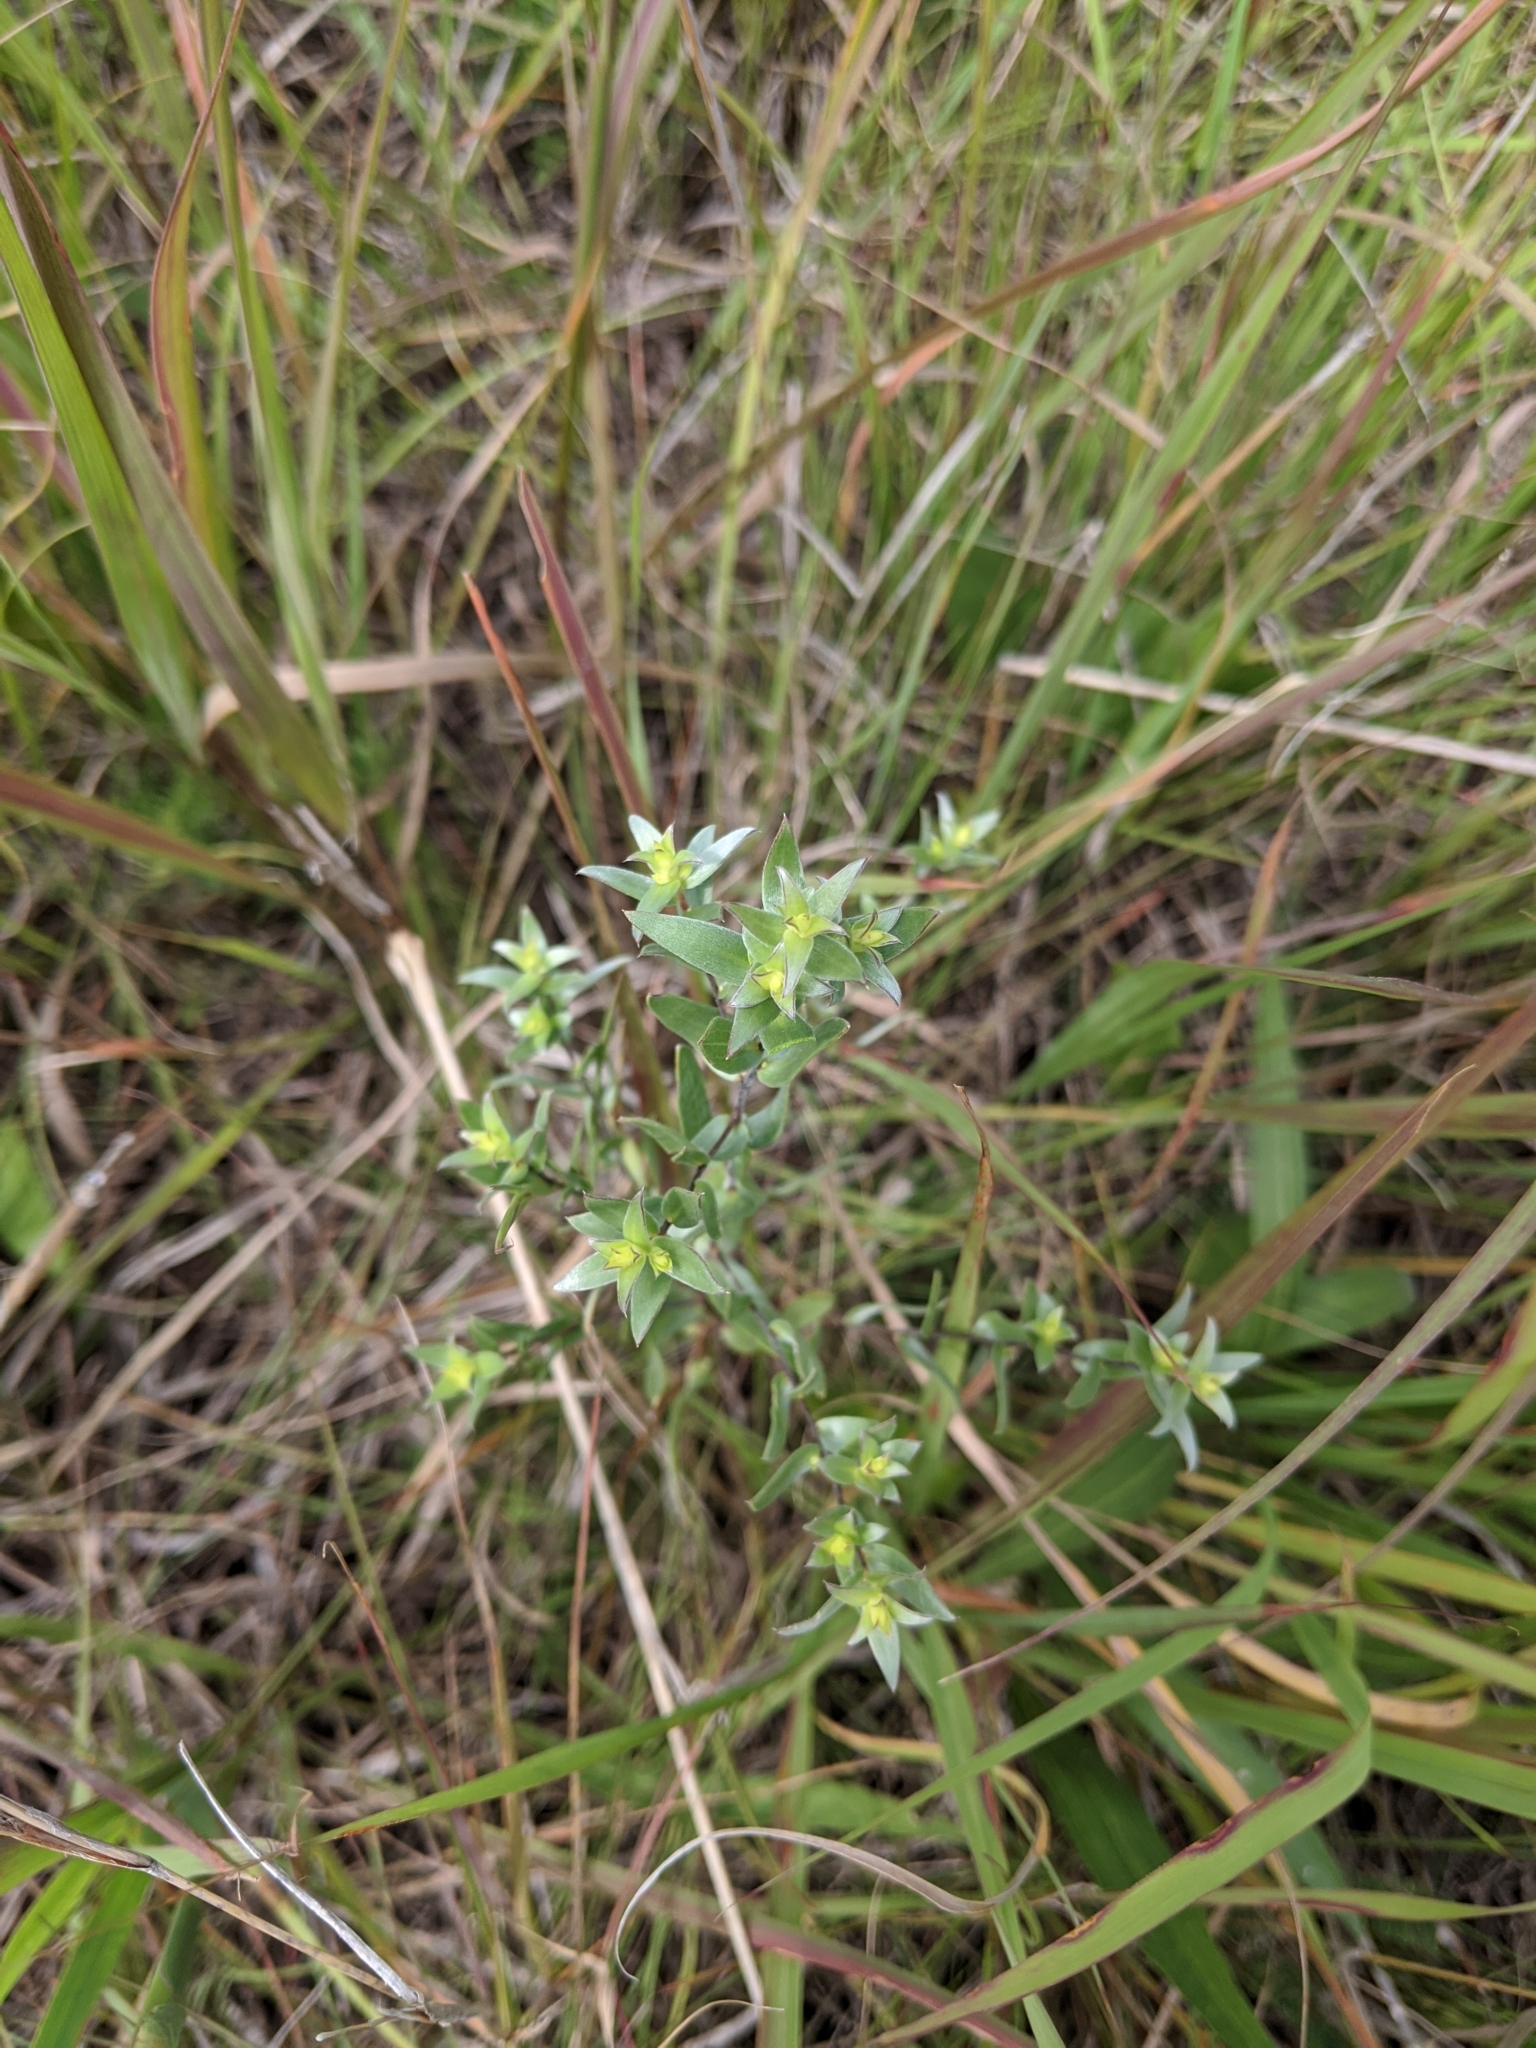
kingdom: Plantae
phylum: Tracheophyta
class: Magnoliopsida
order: Asterales
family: Asteraceae
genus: Symphyotrichum
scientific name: Symphyotrichum sericeum
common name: Silky aster
